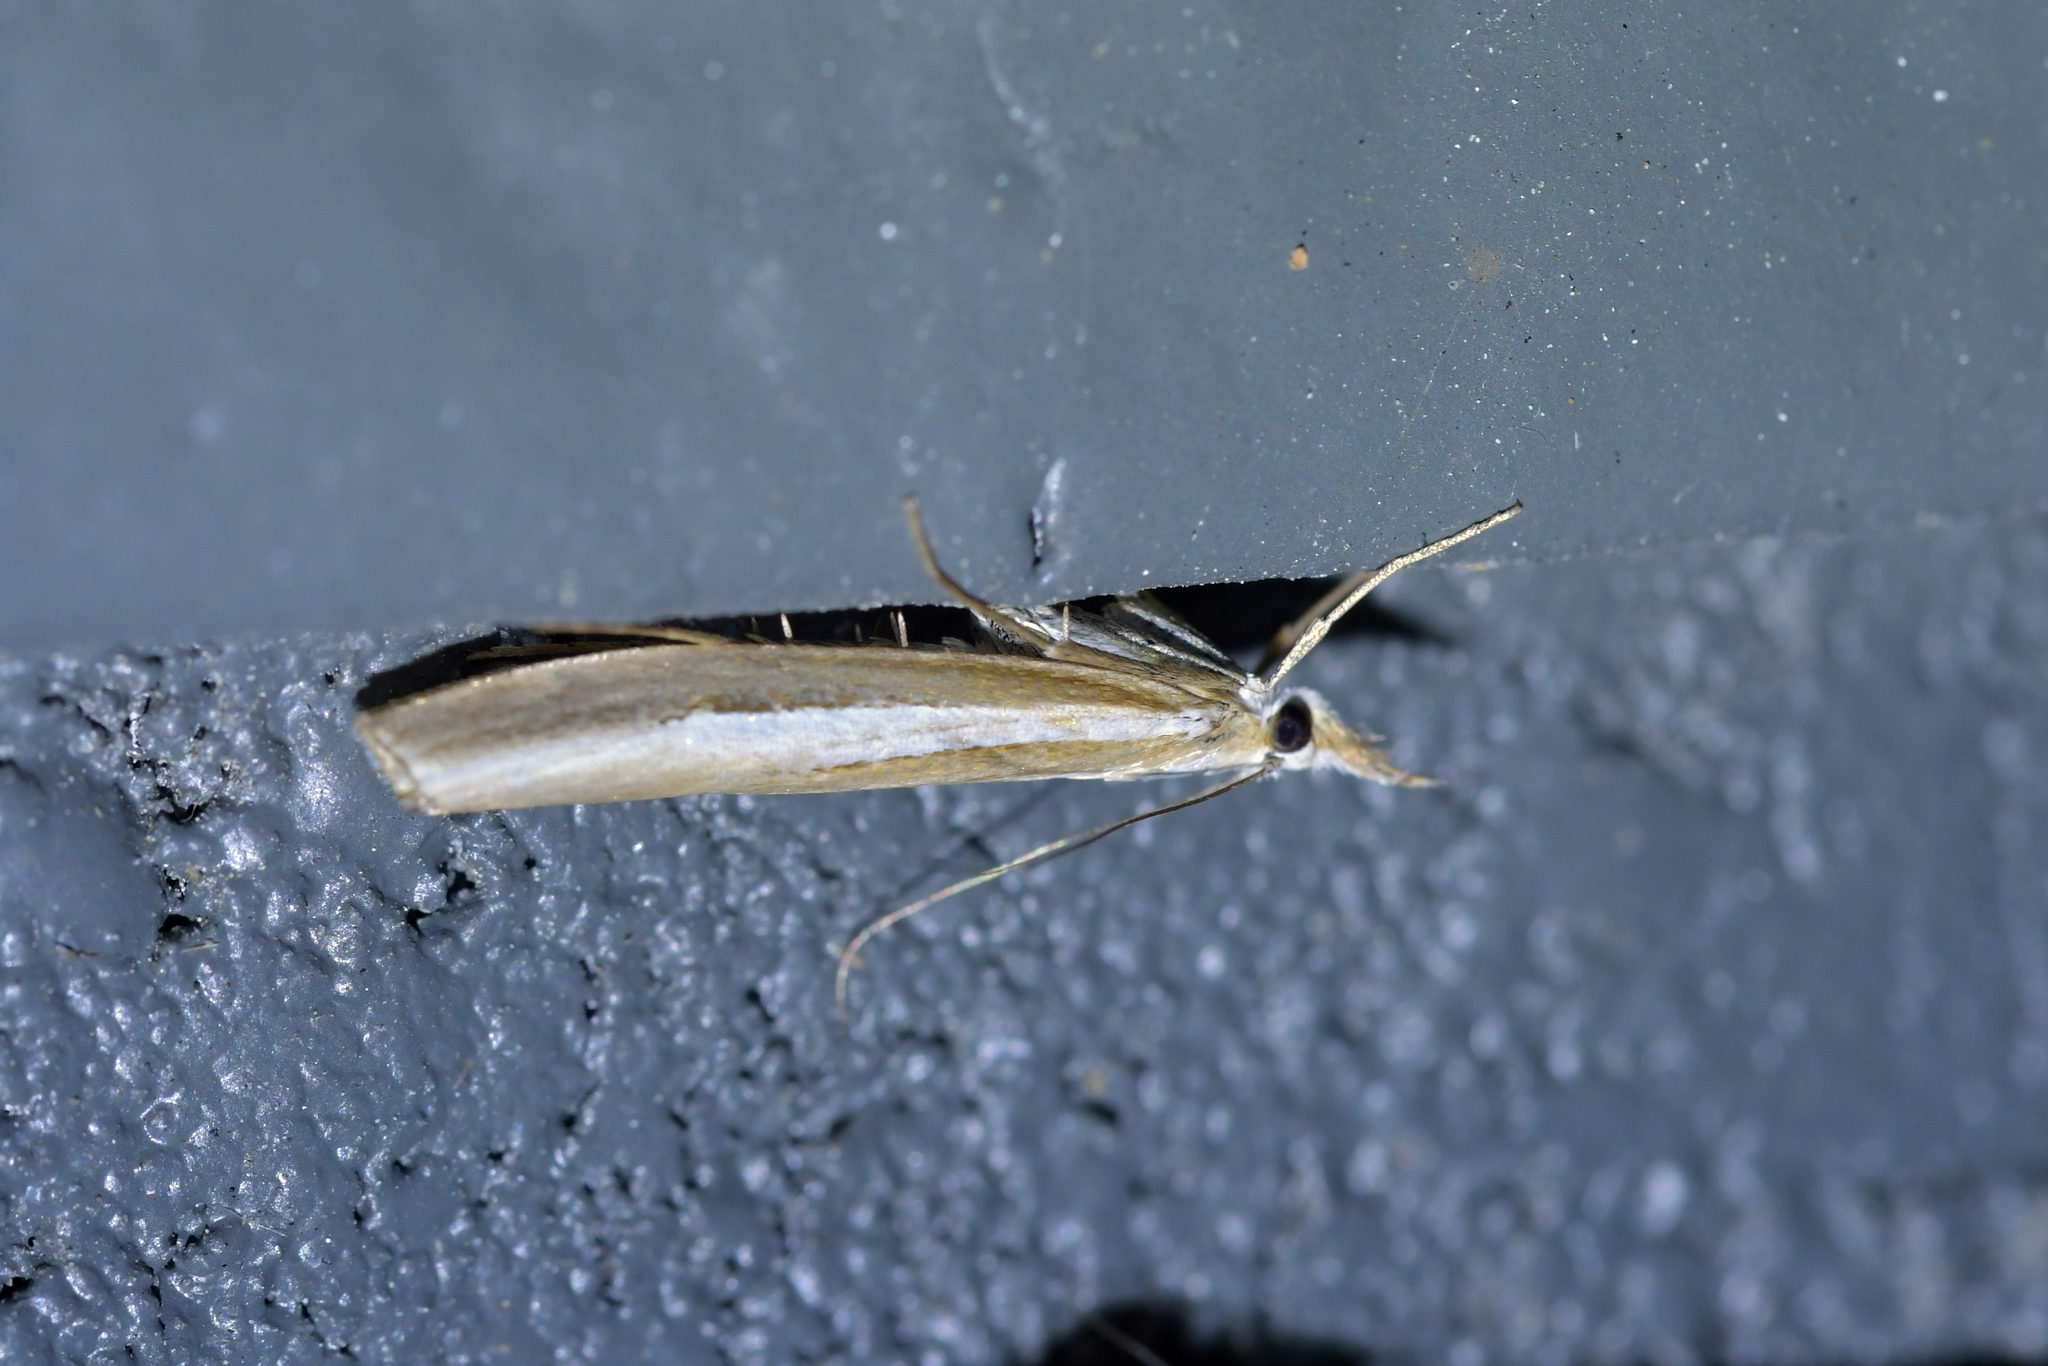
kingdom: Animalia
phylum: Arthropoda
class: Insecta
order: Lepidoptera
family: Crambidae
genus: Orocrambus
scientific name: Orocrambus vittellus
